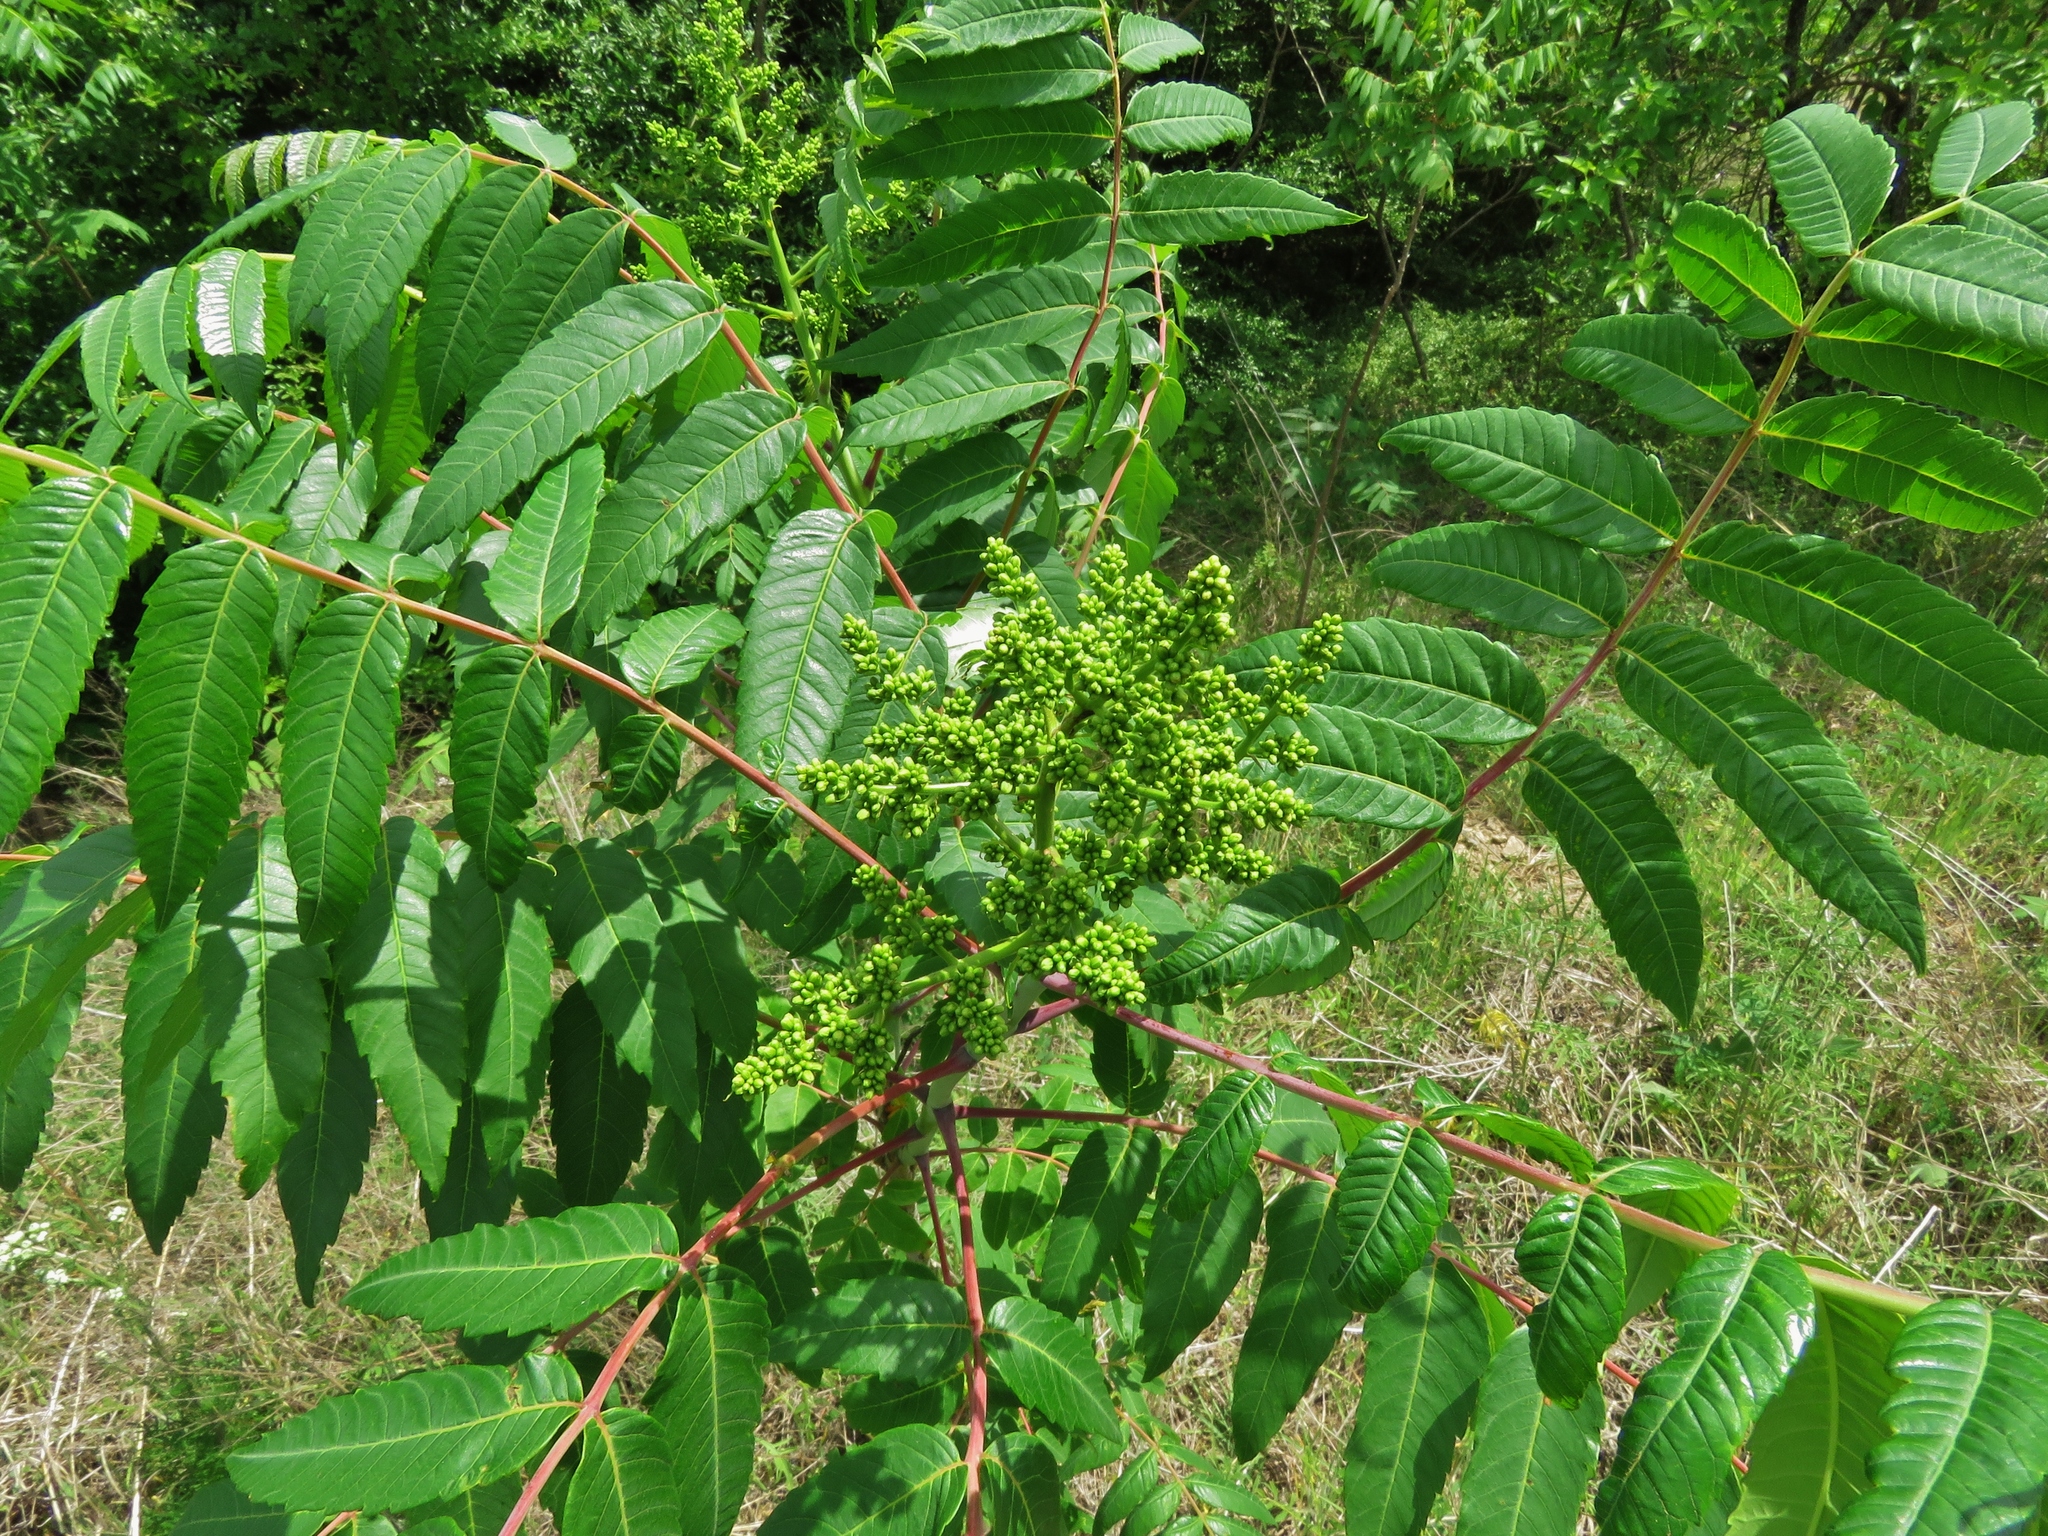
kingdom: Plantae
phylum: Tracheophyta
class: Magnoliopsida
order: Sapindales
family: Anacardiaceae
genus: Rhus
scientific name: Rhus glabra
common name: Scarlet sumac
